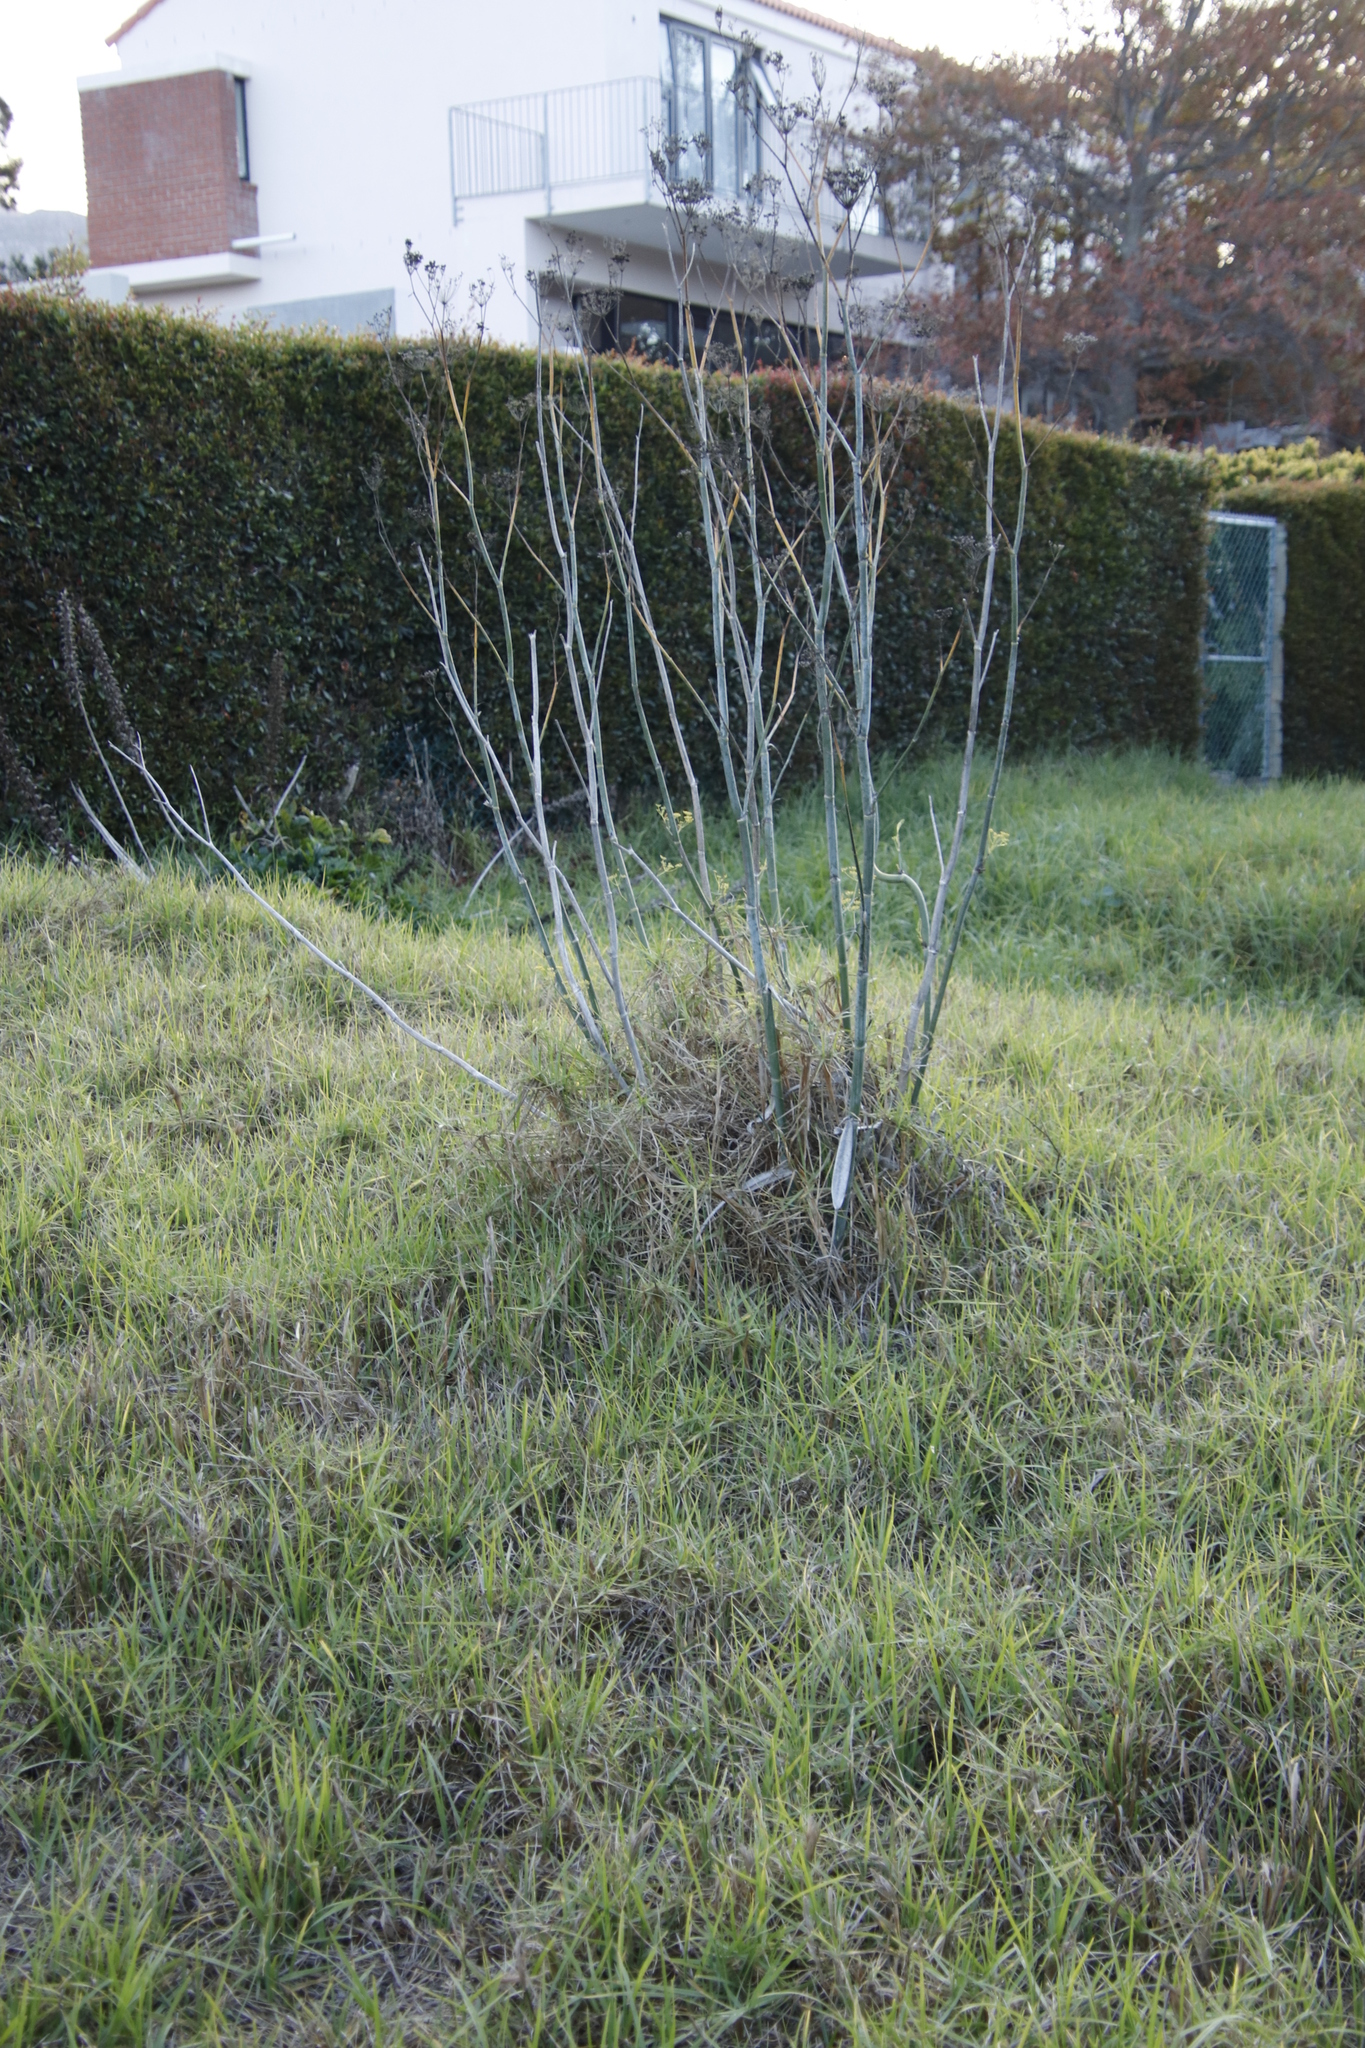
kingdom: Plantae
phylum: Tracheophyta
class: Magnoliopsida
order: Apiales
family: Apiaceae
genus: Foeniculum
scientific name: Foeniculum vulgare
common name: Fennel
